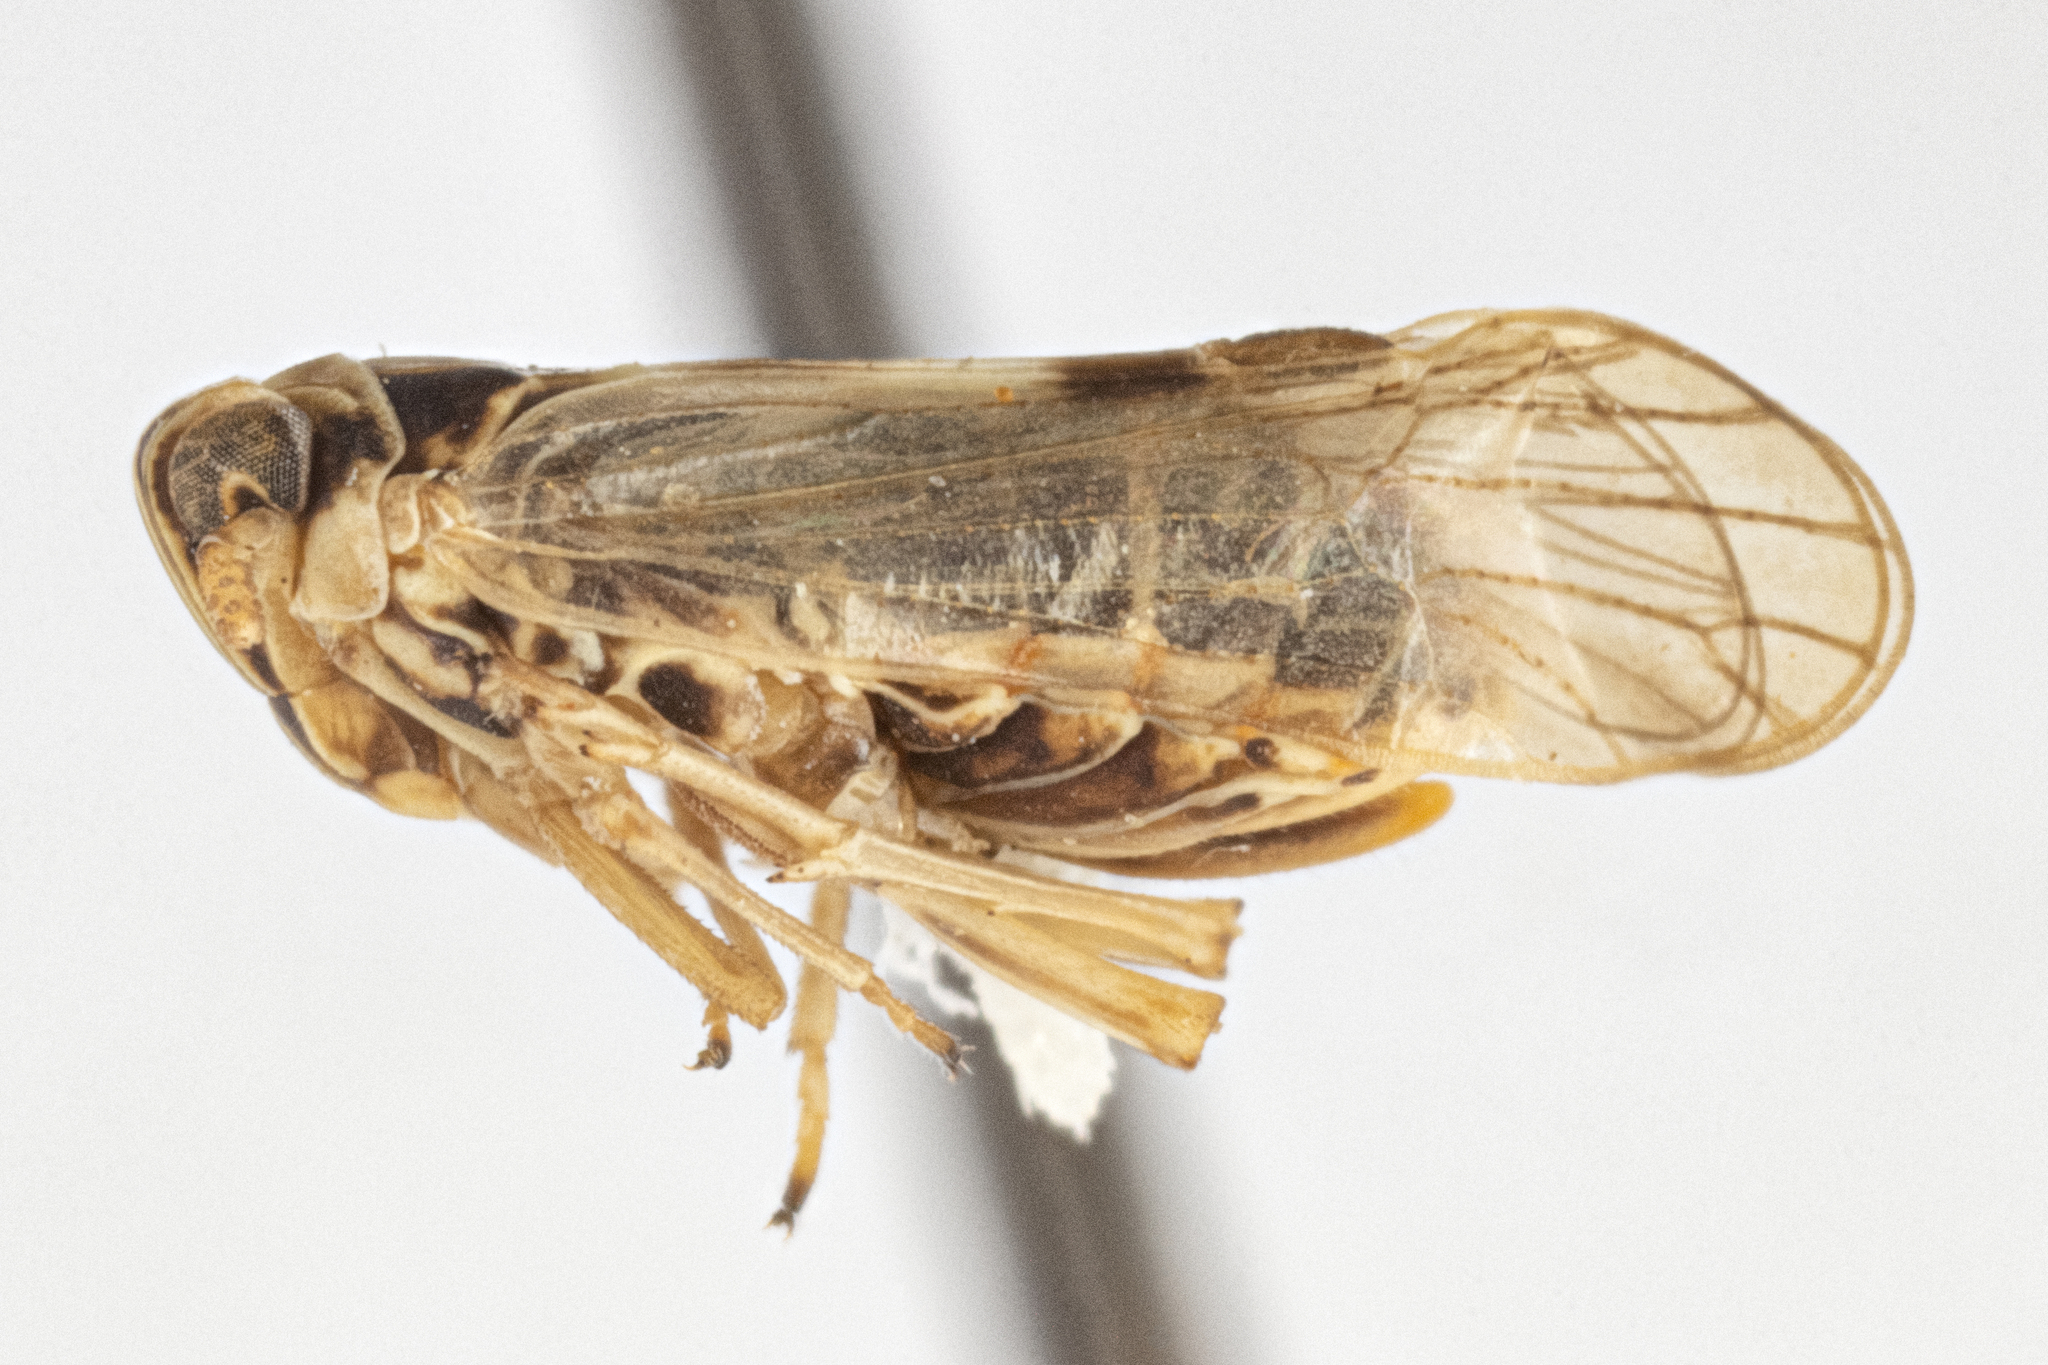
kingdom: Animalia
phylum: Arthropoda
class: Insecta
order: Hemiptera
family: Delphacidae
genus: Laodelphax
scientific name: Laodelphax striatellus
